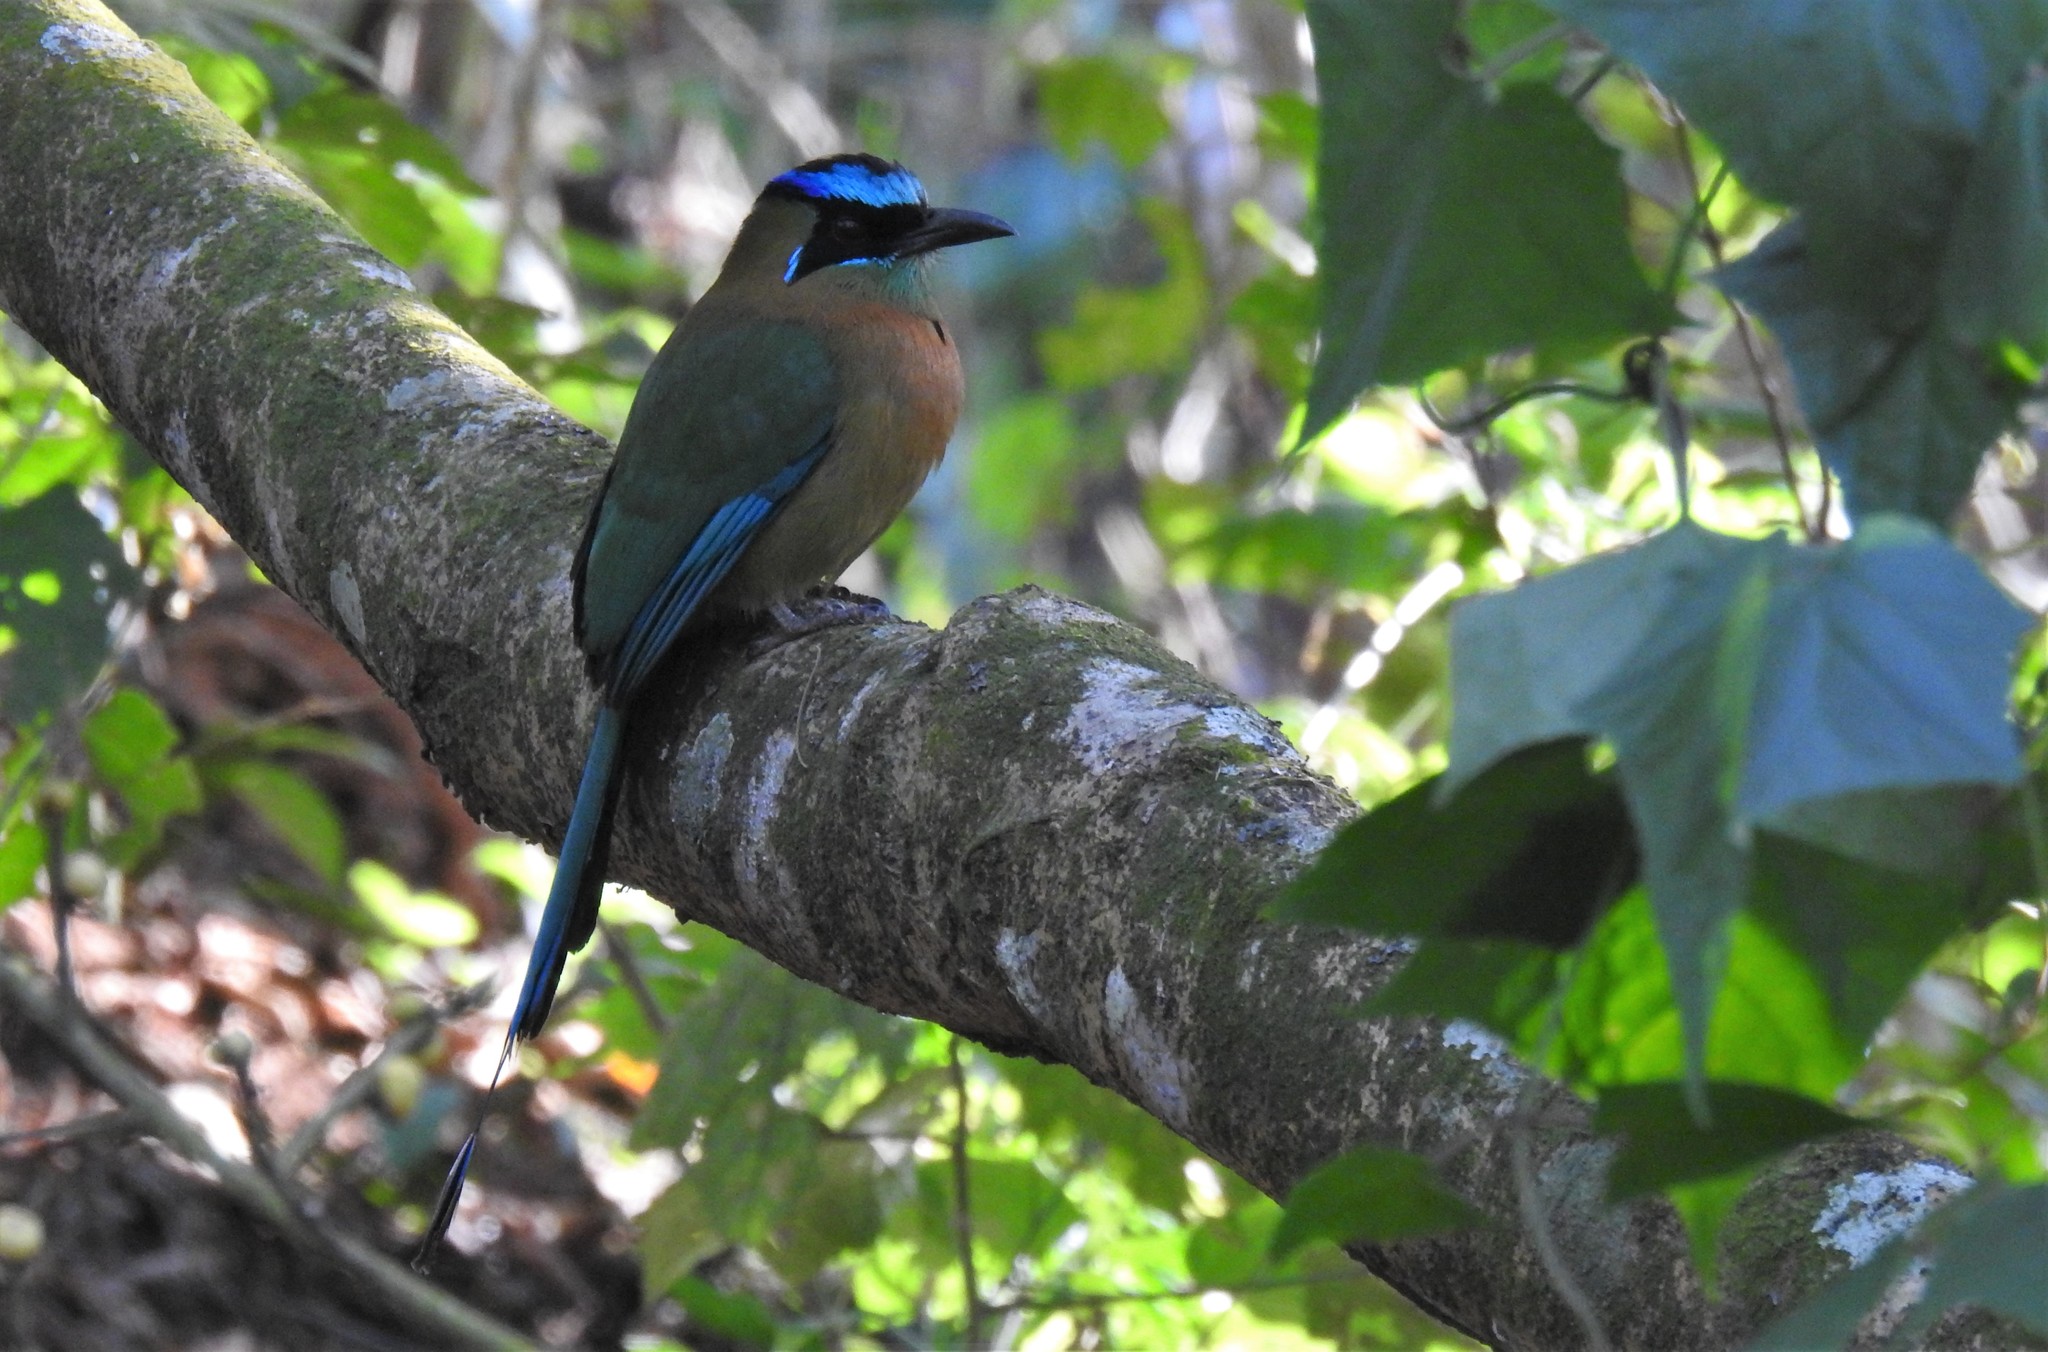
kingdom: Animalia
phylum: Chordata
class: Aves
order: Coraciiformes
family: Momotidae
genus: Momotus
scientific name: Momotus lessonii
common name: Lesson's motmot
